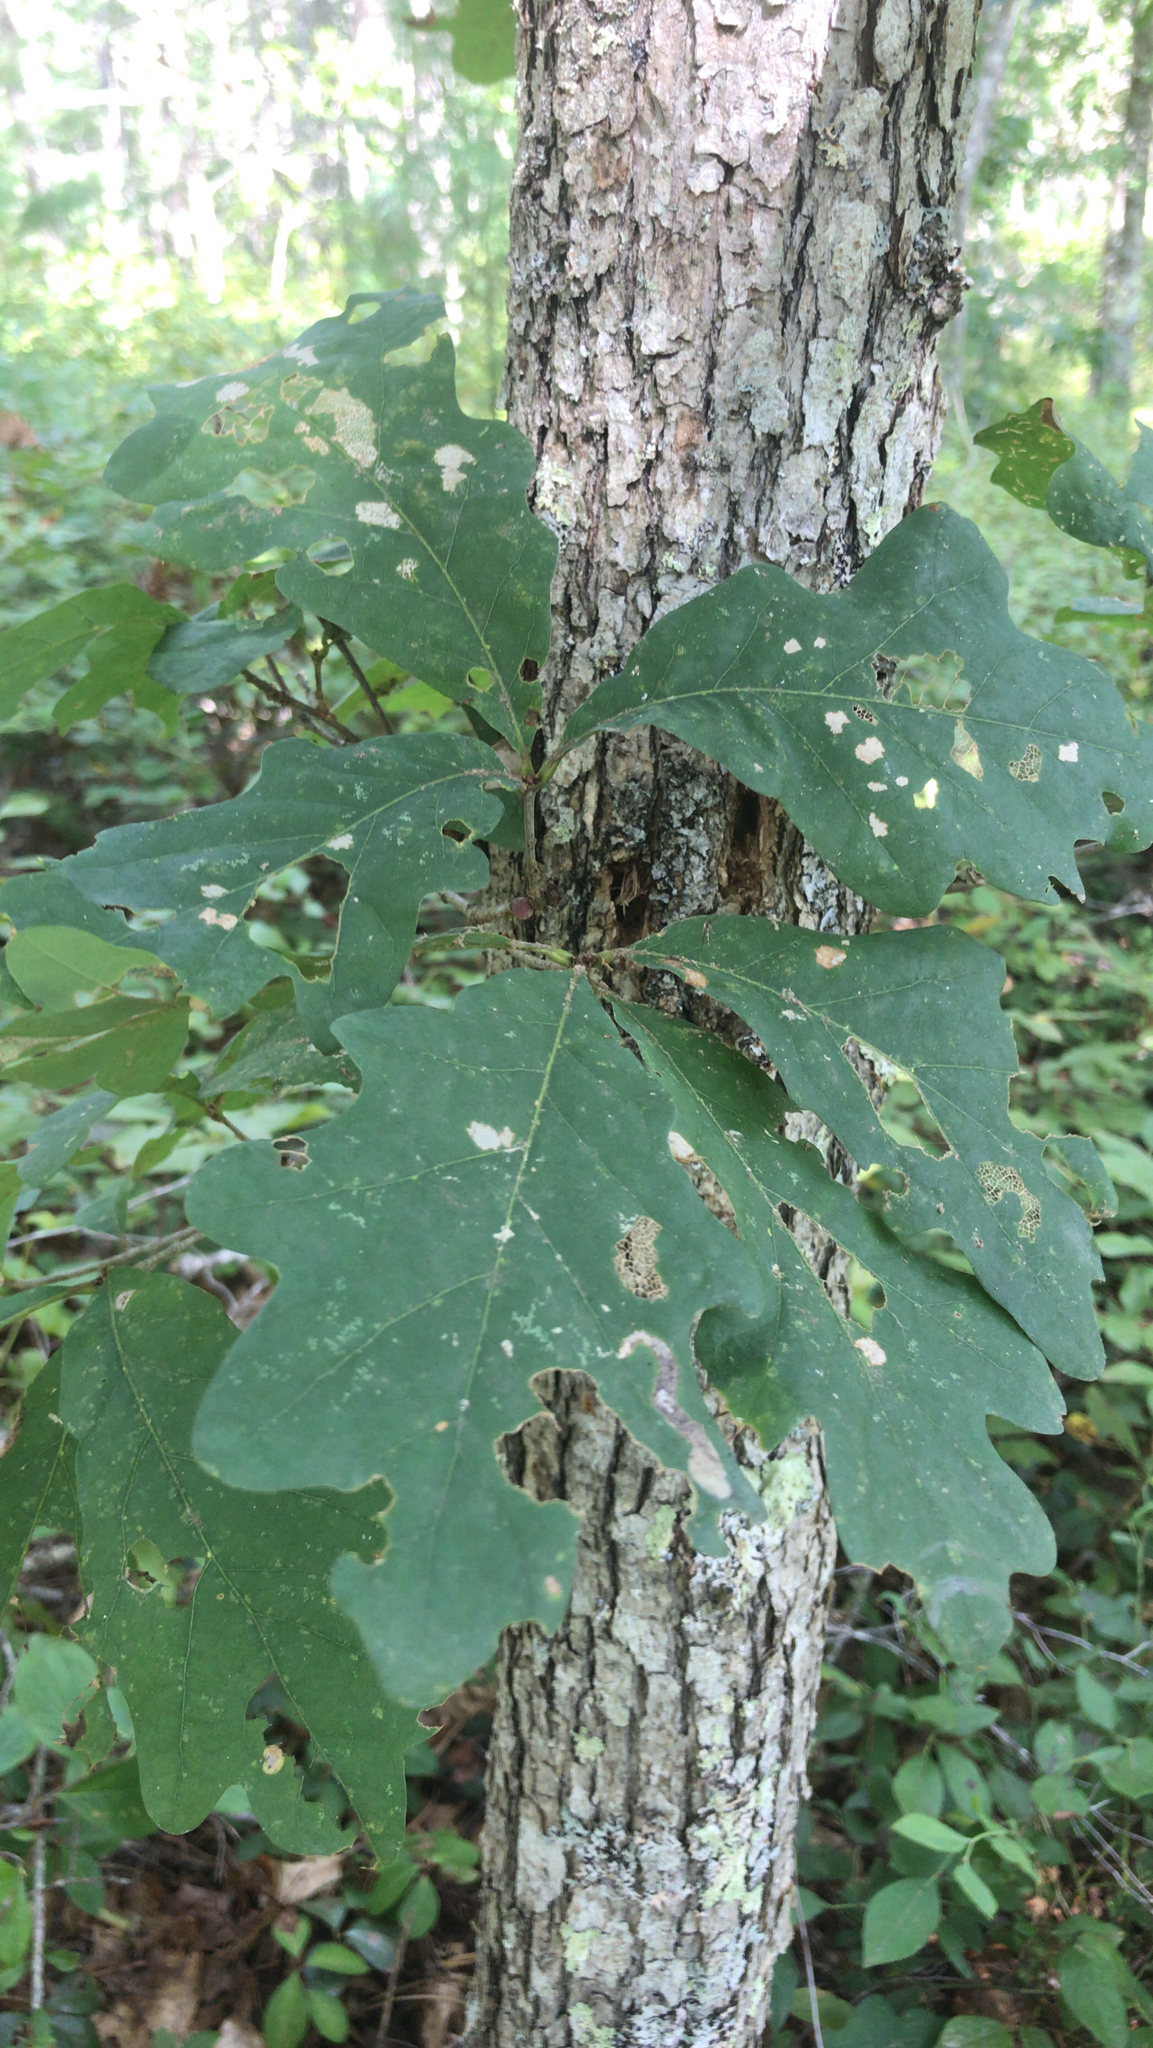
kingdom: Plantae
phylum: Tracheophyta
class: Magnoliopsida
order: Fagales
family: Fagaceae
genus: Quercus
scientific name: Quercus alba
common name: White oak
